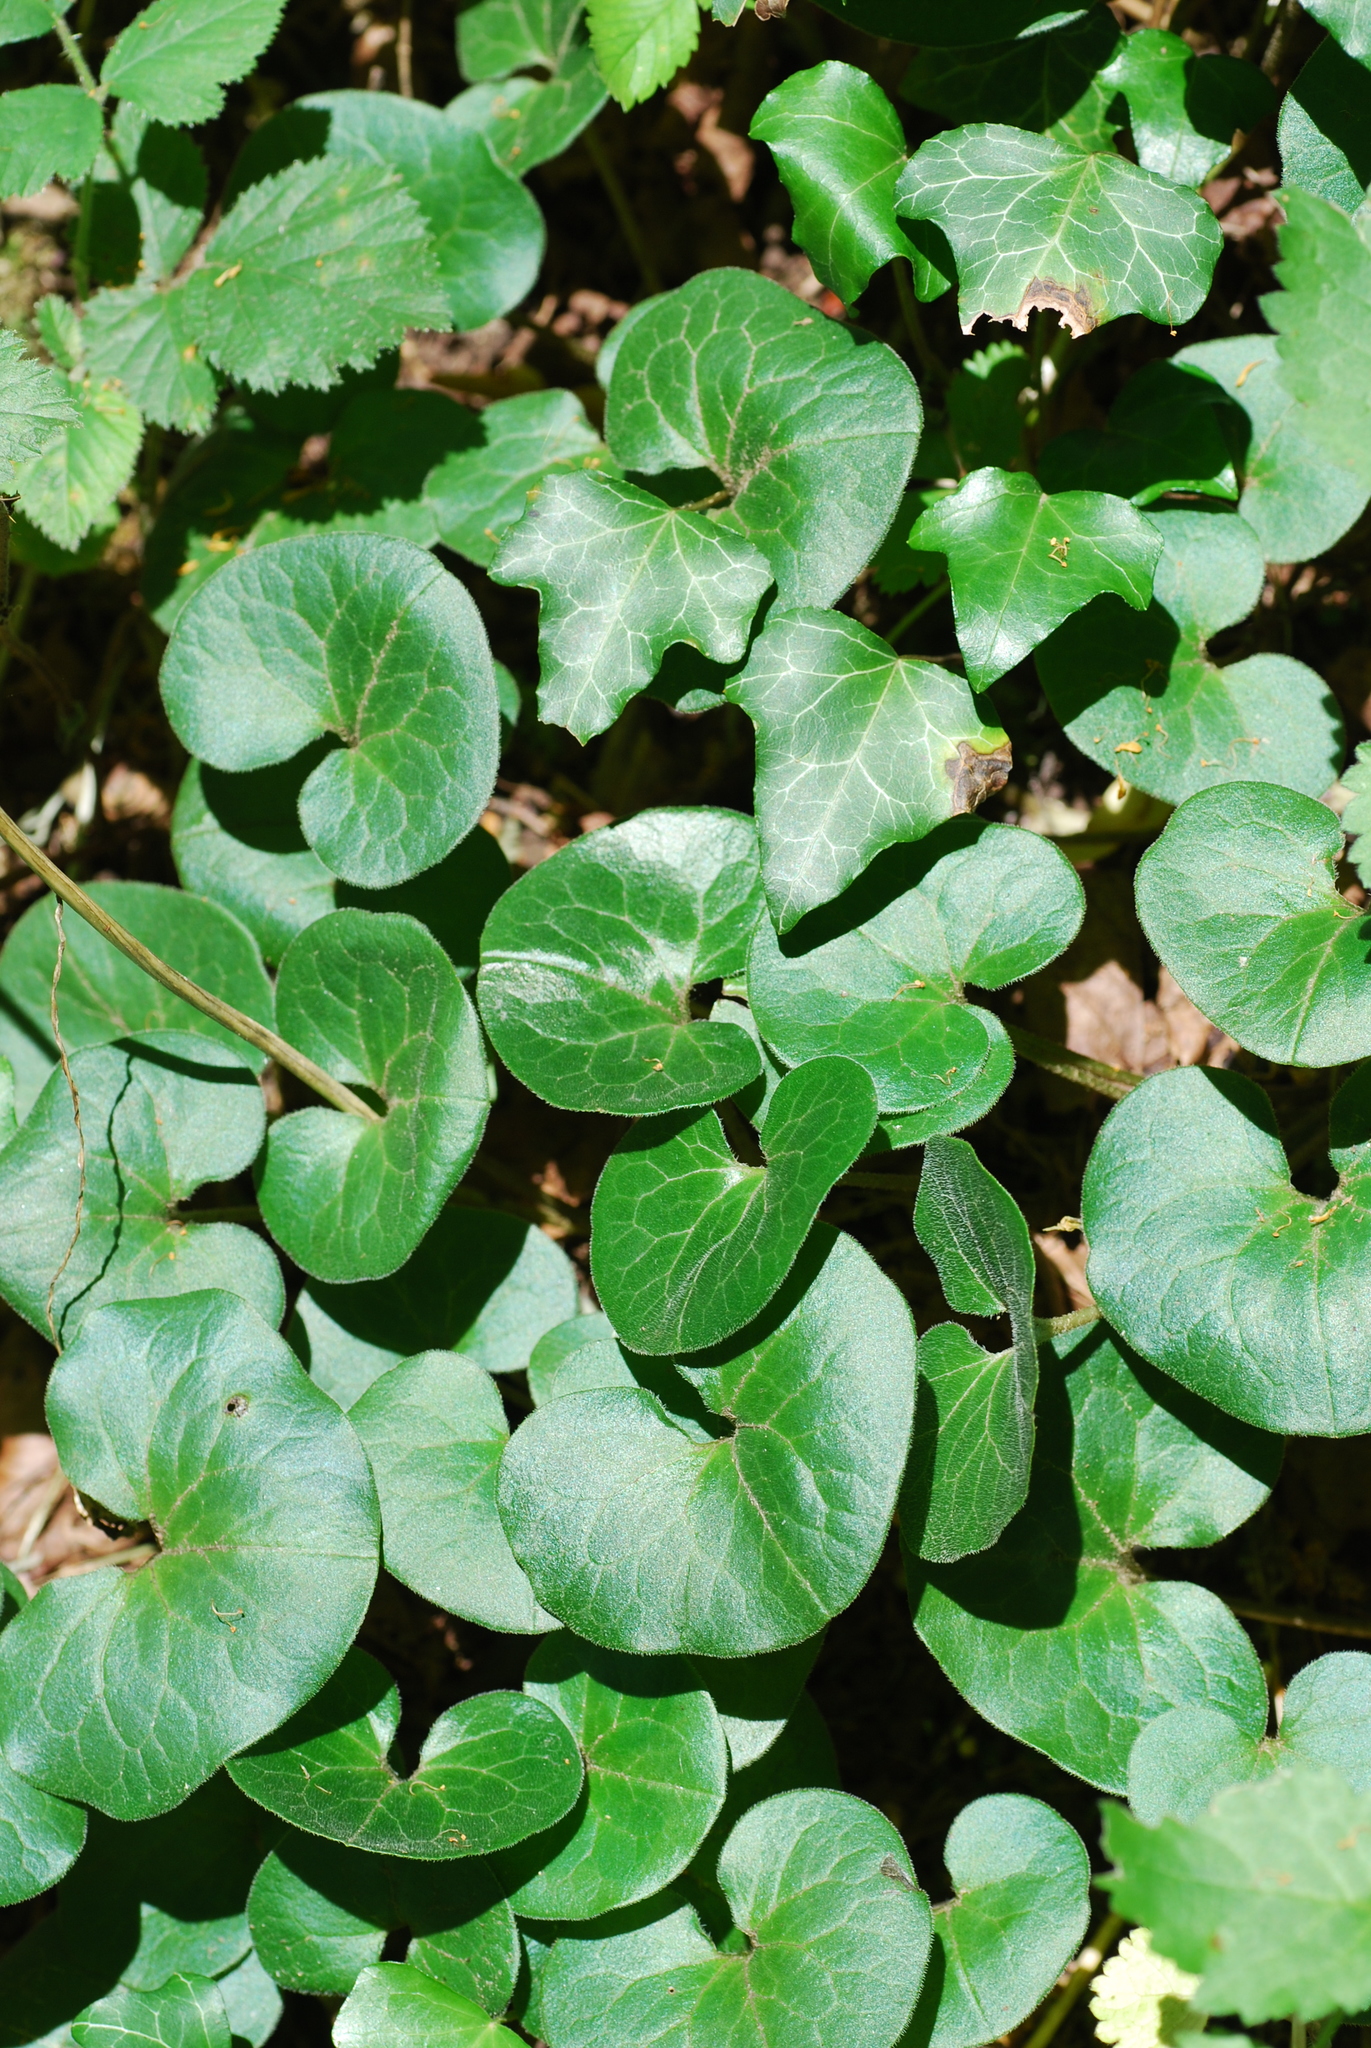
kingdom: Plantae
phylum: Tracheophyta
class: Magnoliopsida
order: Piperales
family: Aristolochiaceae
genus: Asarum
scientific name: Asarum europaeum
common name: Asarabacca
